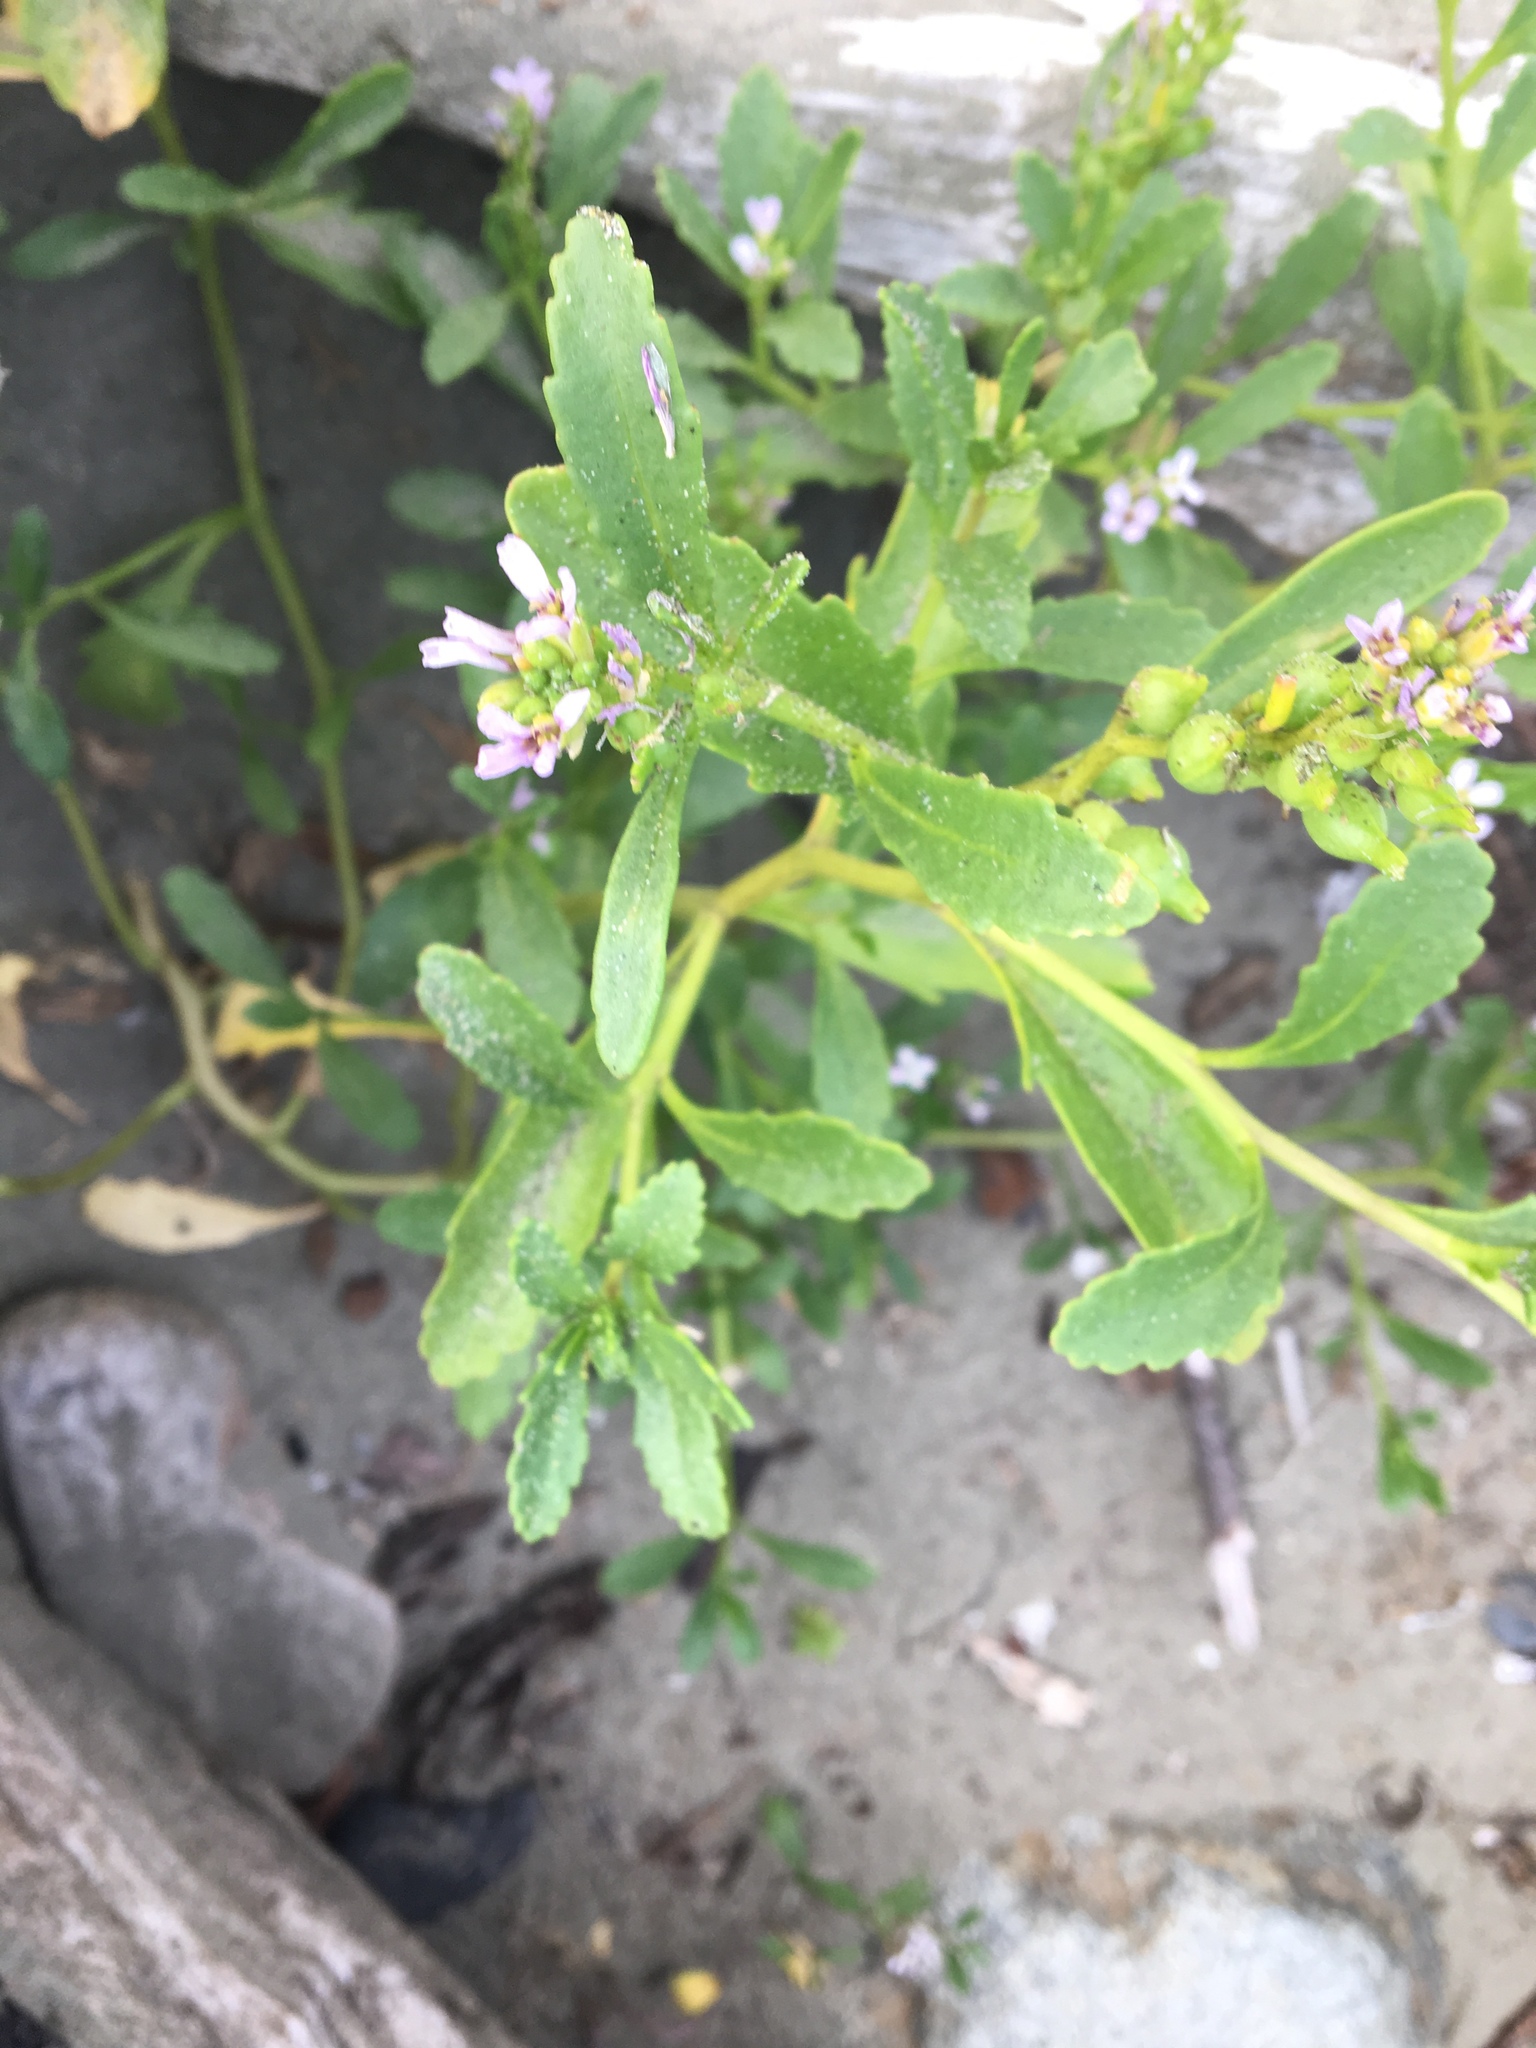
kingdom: Plantae
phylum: Tracheophyta
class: Magnoliopsida
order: Brassicales
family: Brassicaceae
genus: Cakile
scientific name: Cakile edentula
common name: American sea rocket
